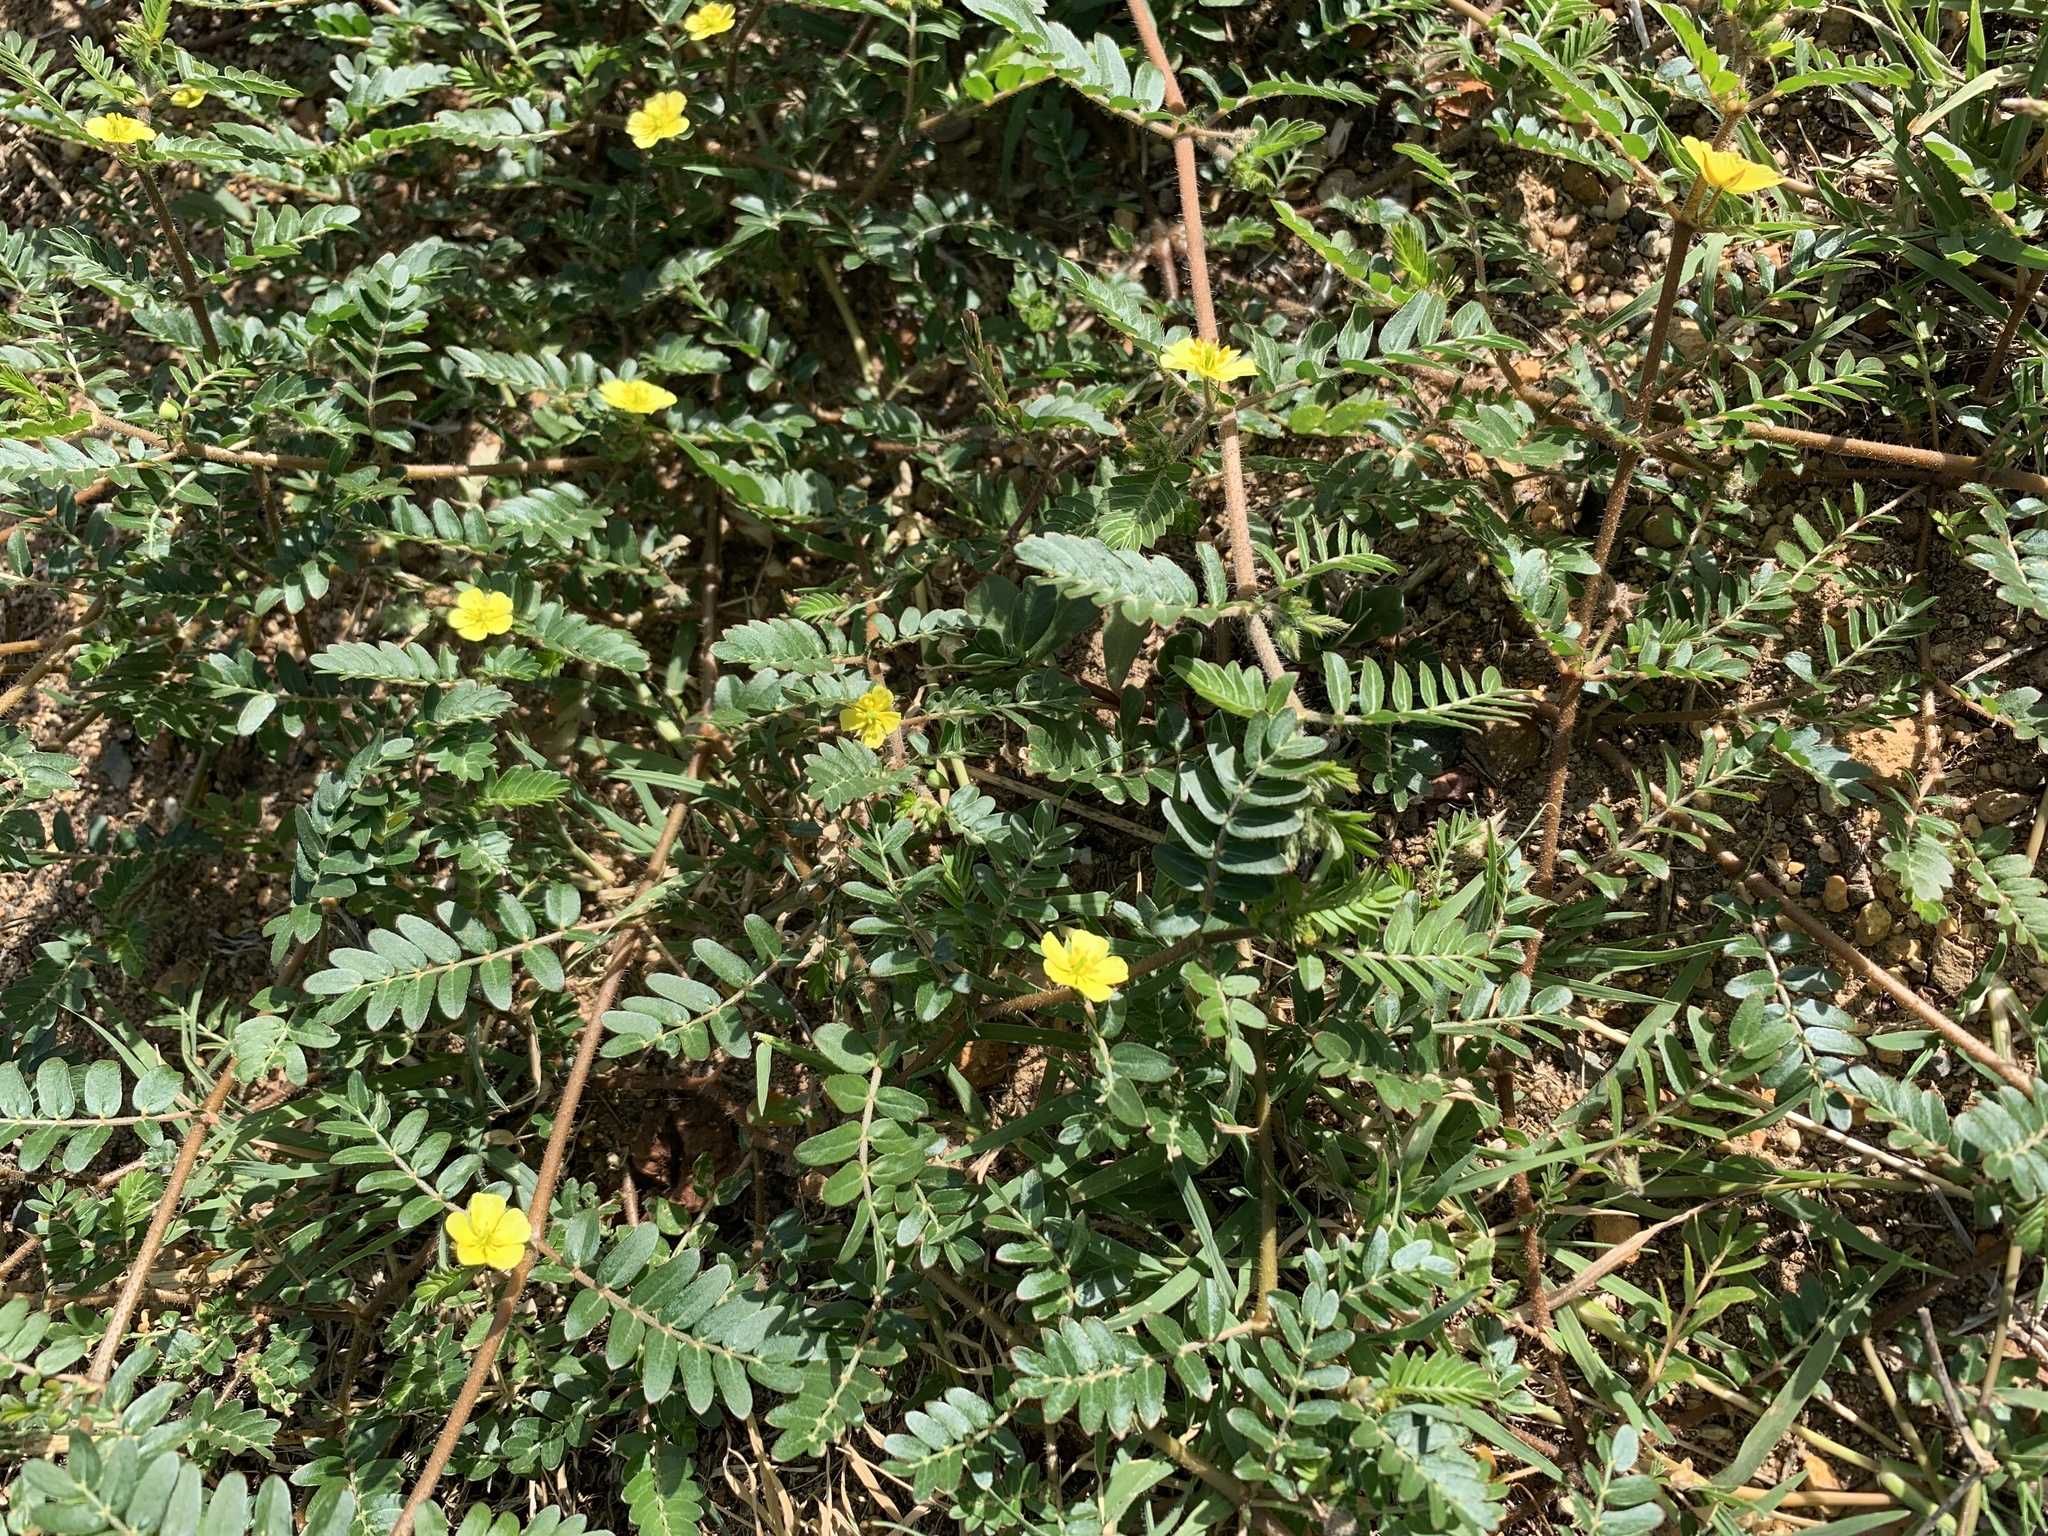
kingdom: Plantae
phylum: Tracheophyta
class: Magnoliopsida
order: Zygophyllales
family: Zygophyllaceae
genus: Tribulus
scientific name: Tribulus terrestris
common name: Puncturevine
